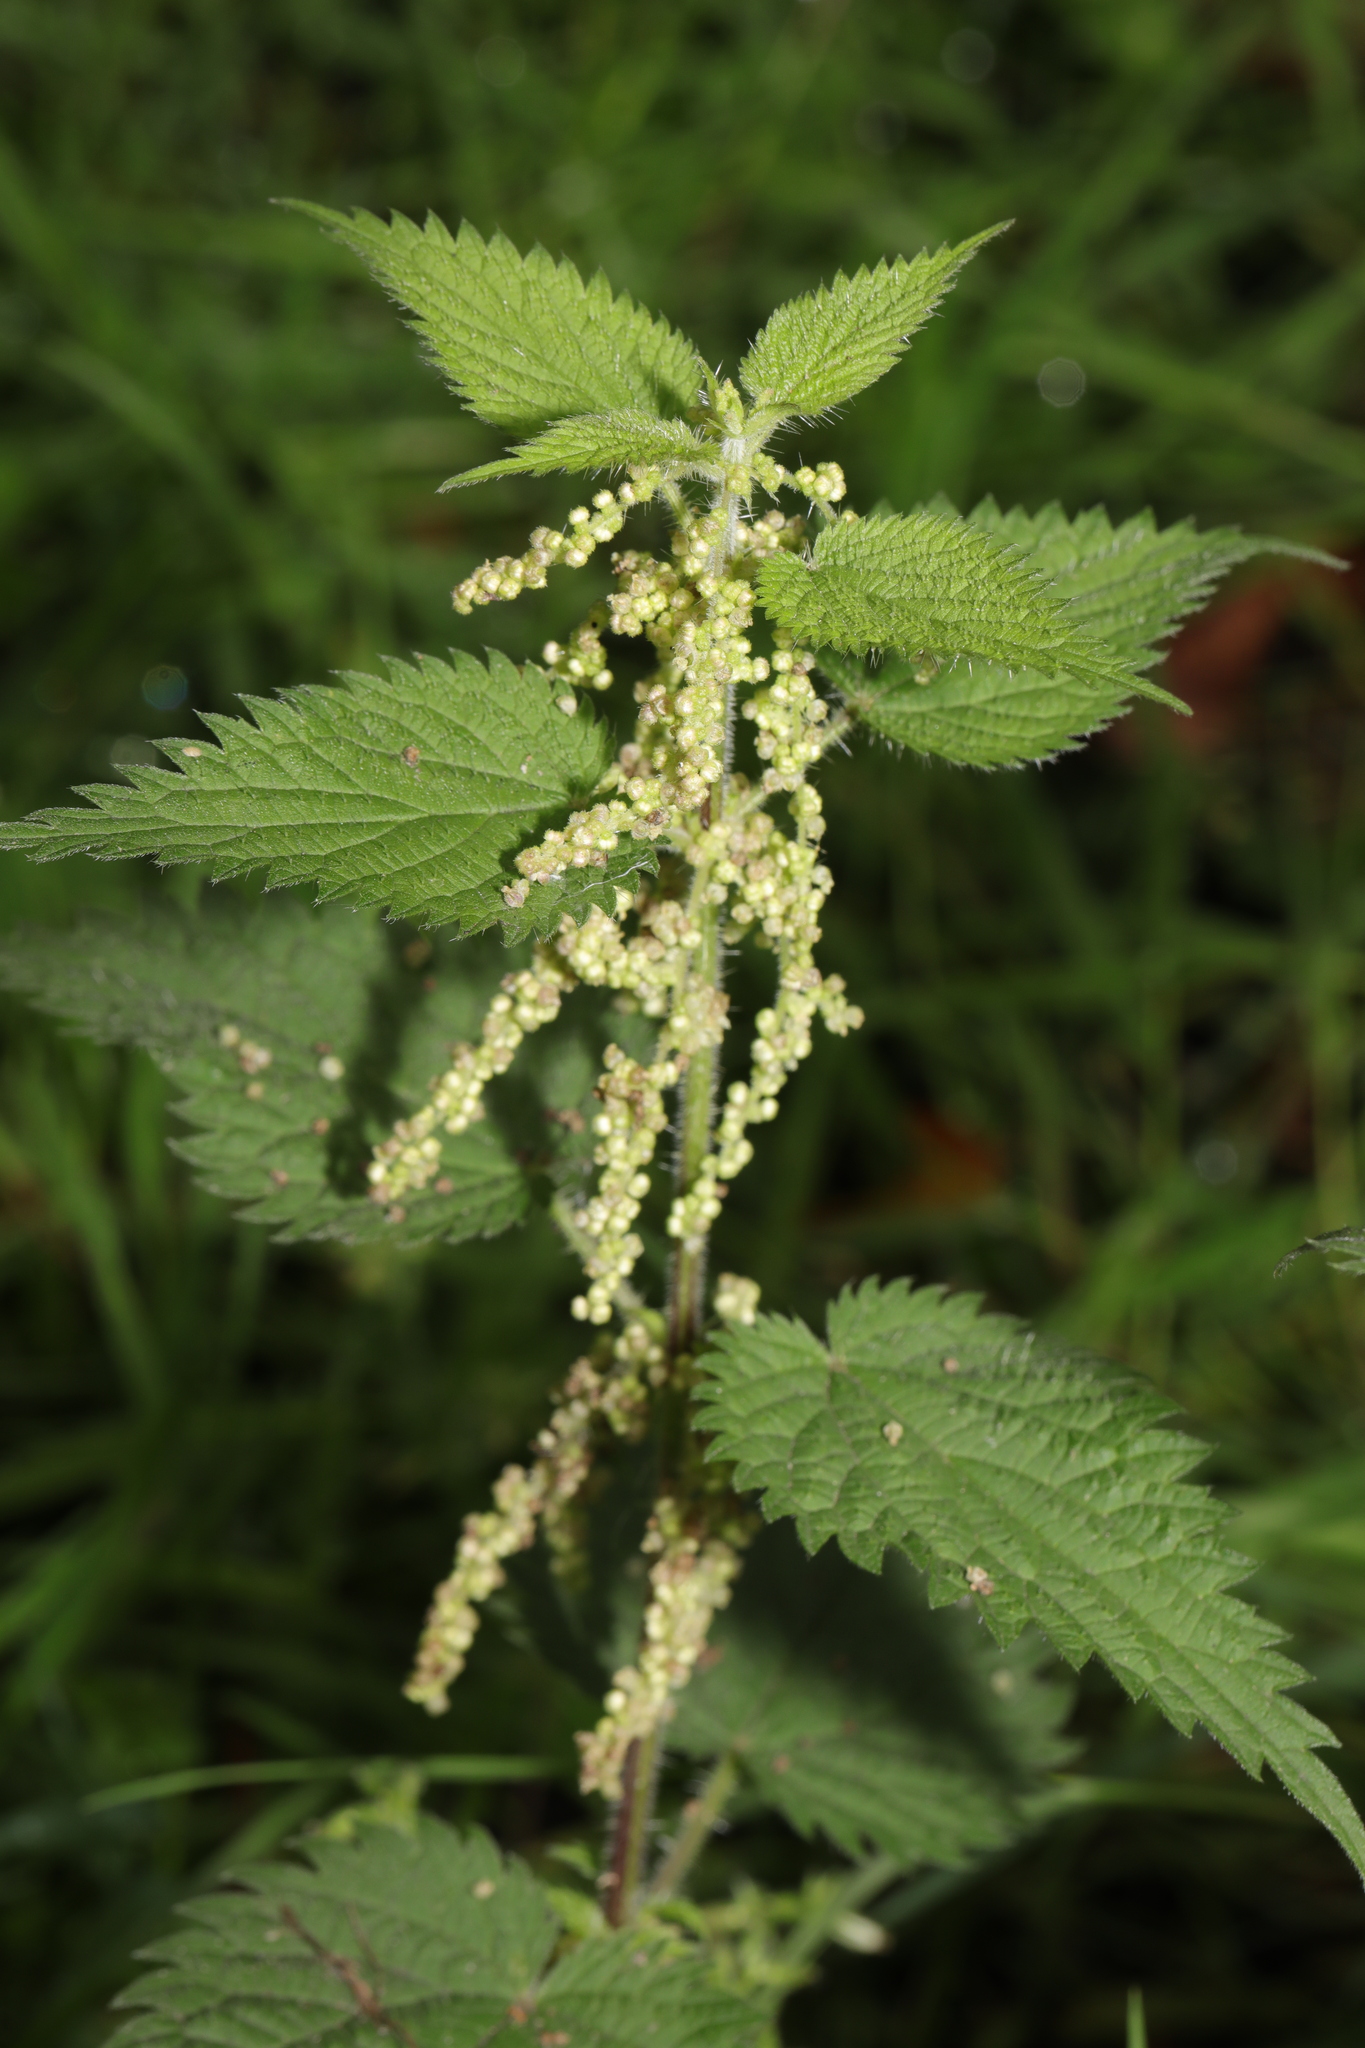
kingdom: Plantae
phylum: Tracheophyta
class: Magnoliopsida
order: Rosales
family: Urticaceae
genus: Urtica
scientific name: Urtica dioica
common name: Common nettle
